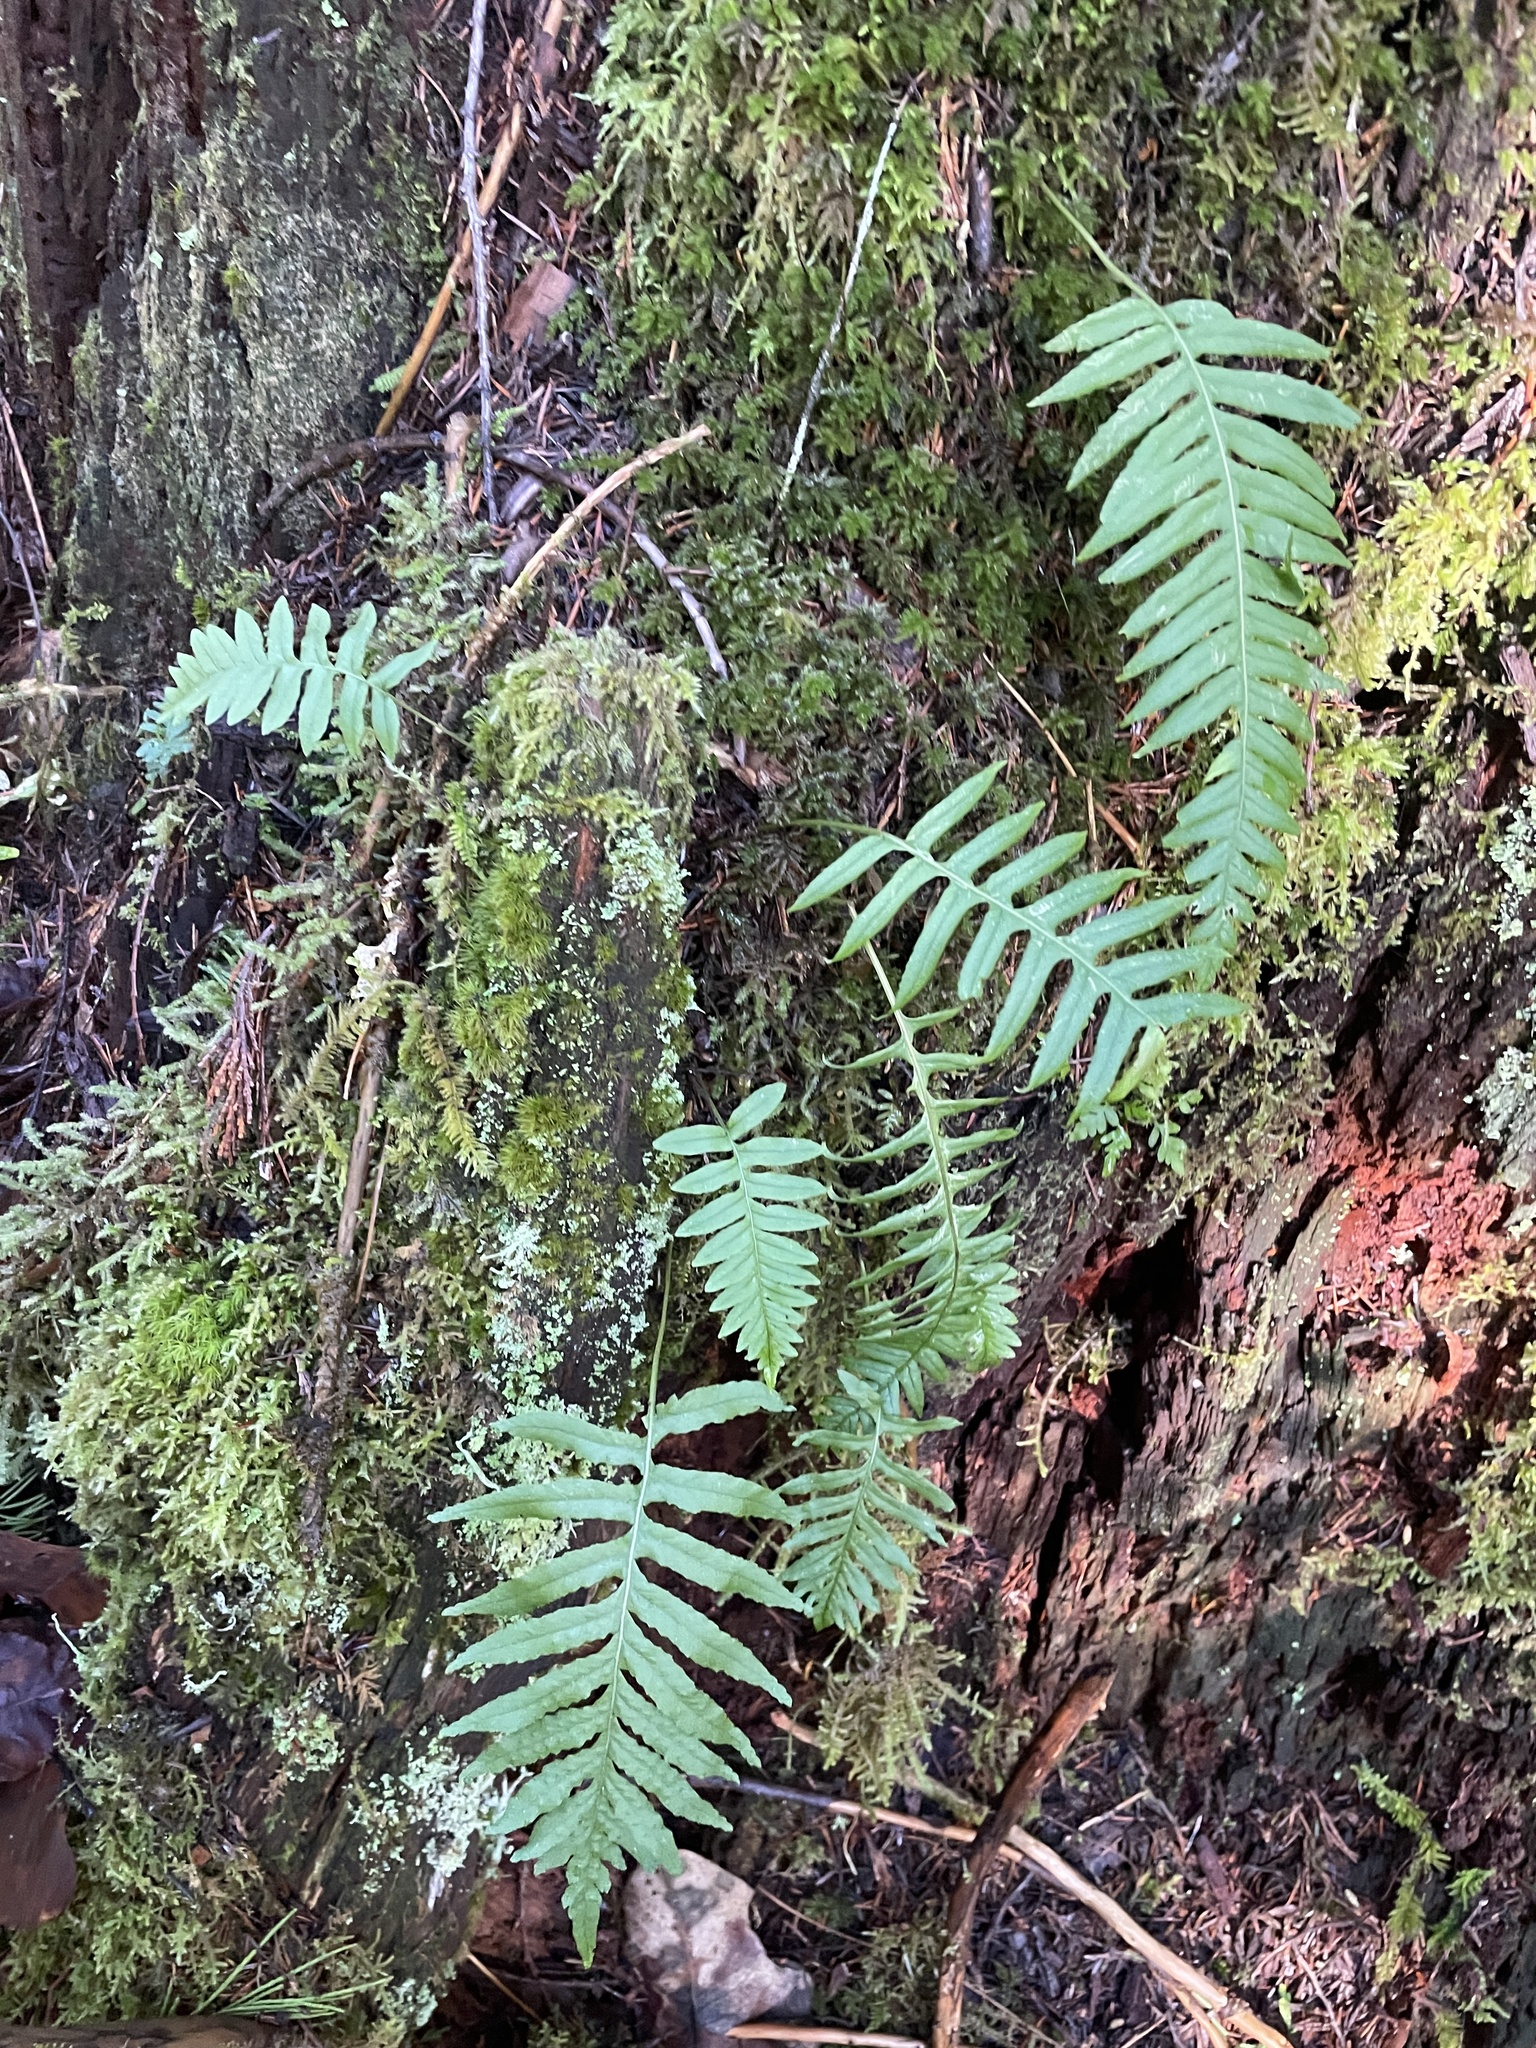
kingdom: Plantae
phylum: Tracheophyta
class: Polypodiopsida
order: Polypodiales
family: Polypodiaceae
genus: Polypodium
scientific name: Polypodium glycyrrhiza
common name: Licorice fern
